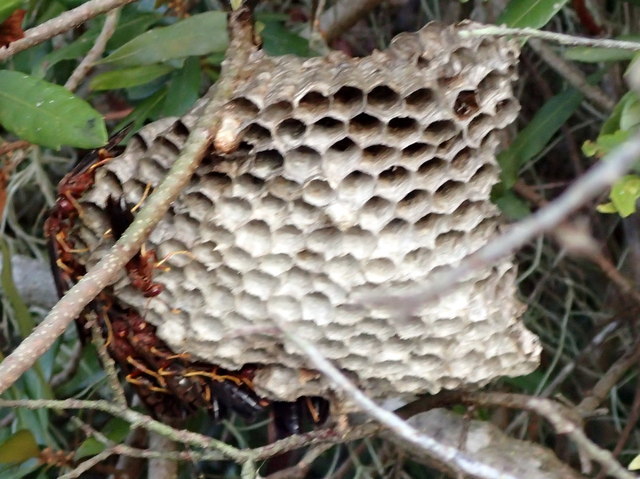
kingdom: Animalia
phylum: Arthropoda
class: Insecta
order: Hymenoptera
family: Eumenidae
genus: Polistes
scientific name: Polistes annularis
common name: Ringed paper wasp
